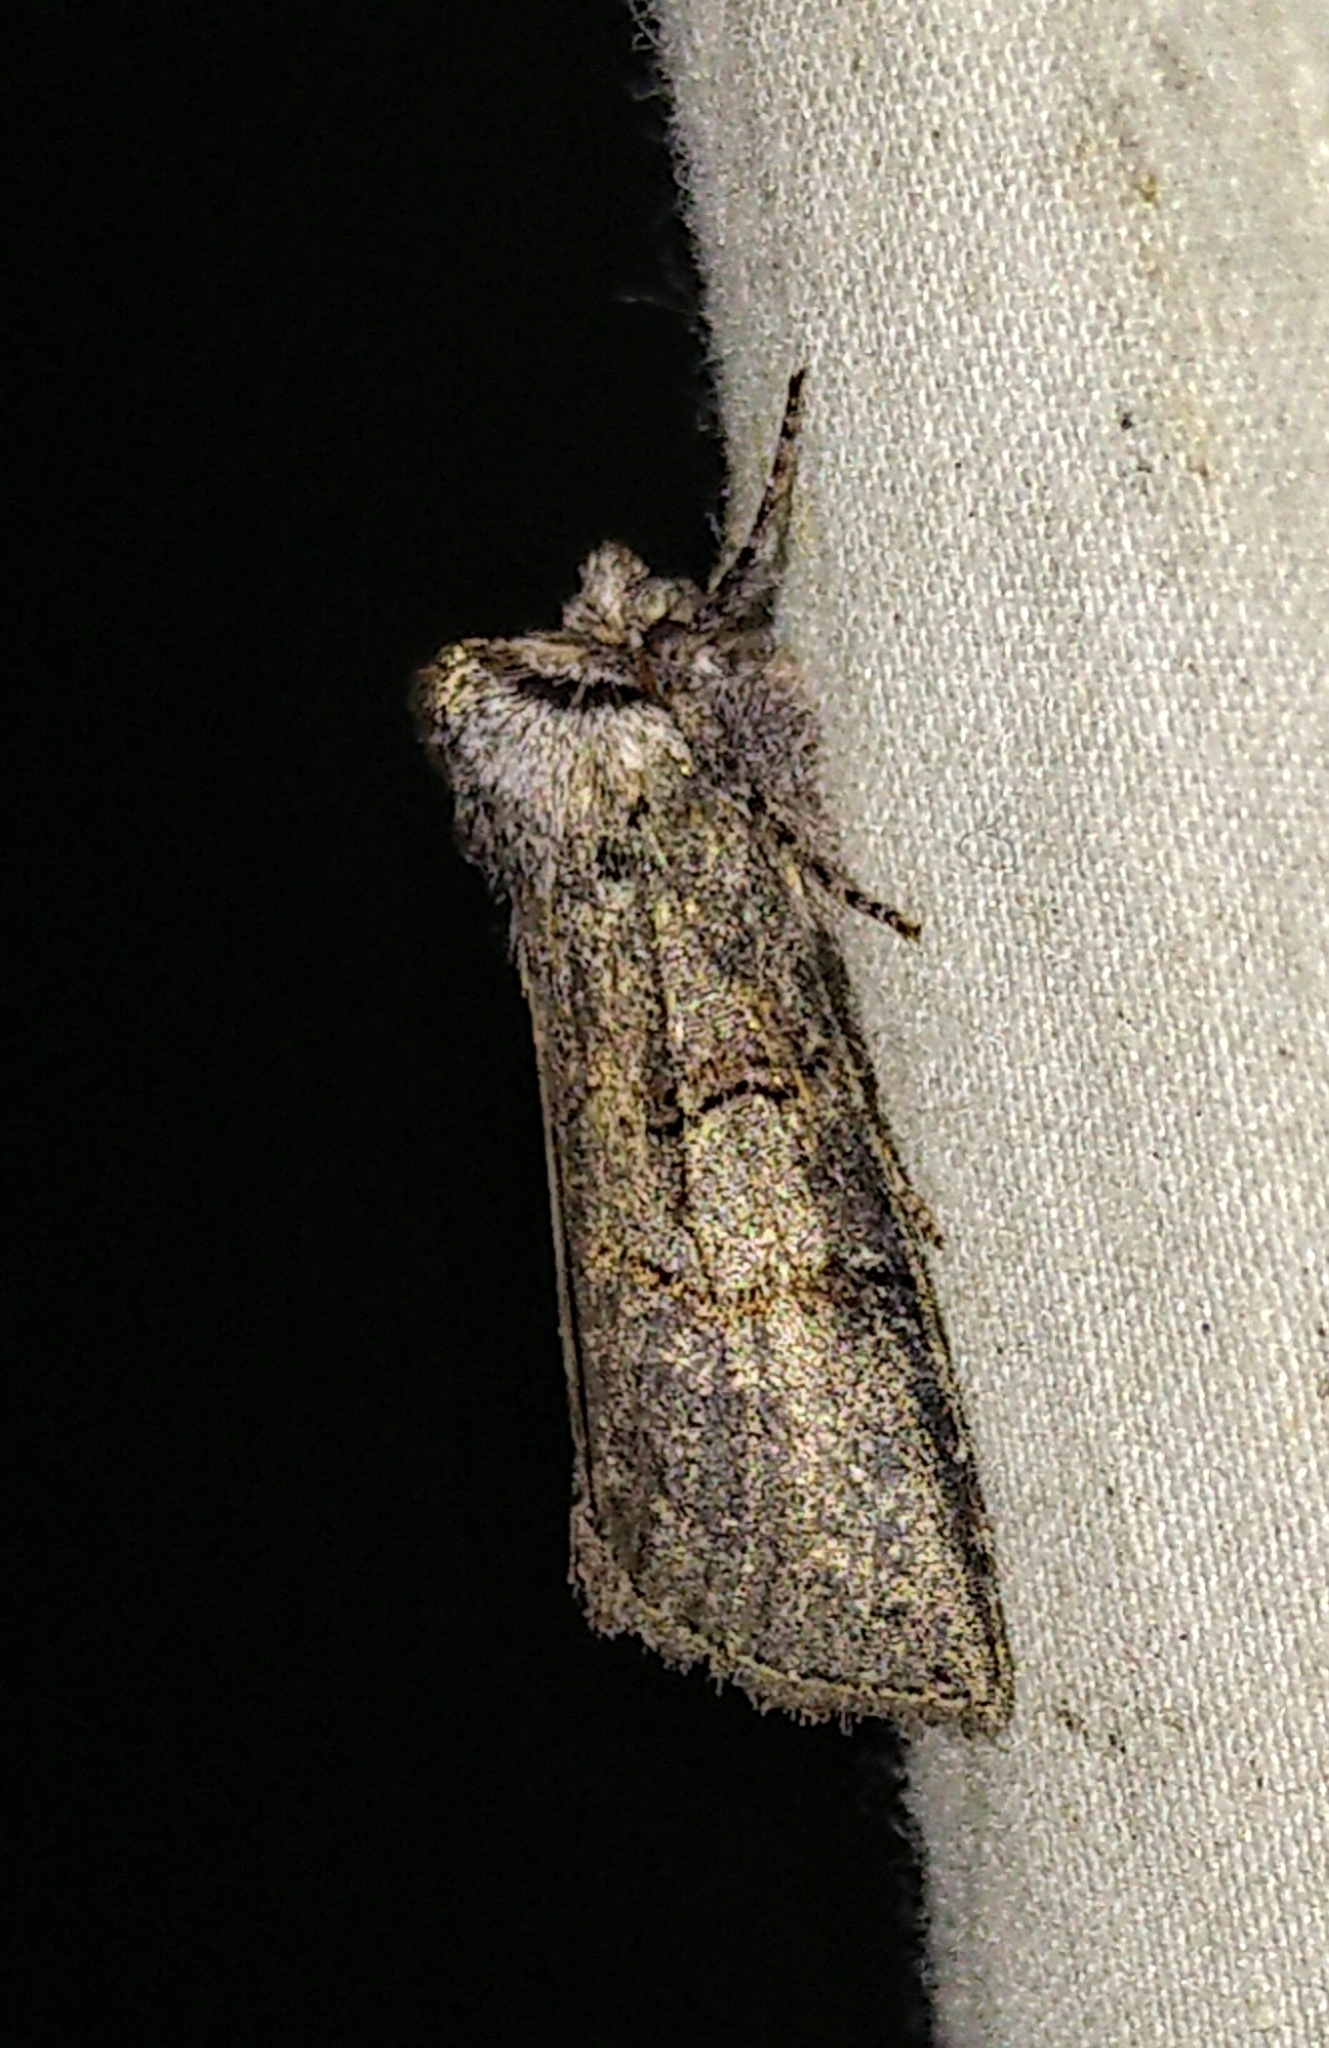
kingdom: Animalia
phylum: Arthropoda
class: Insecta
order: Lepidoptera
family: Drepanidae
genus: Ceranemota
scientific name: Ceranemota albertae
